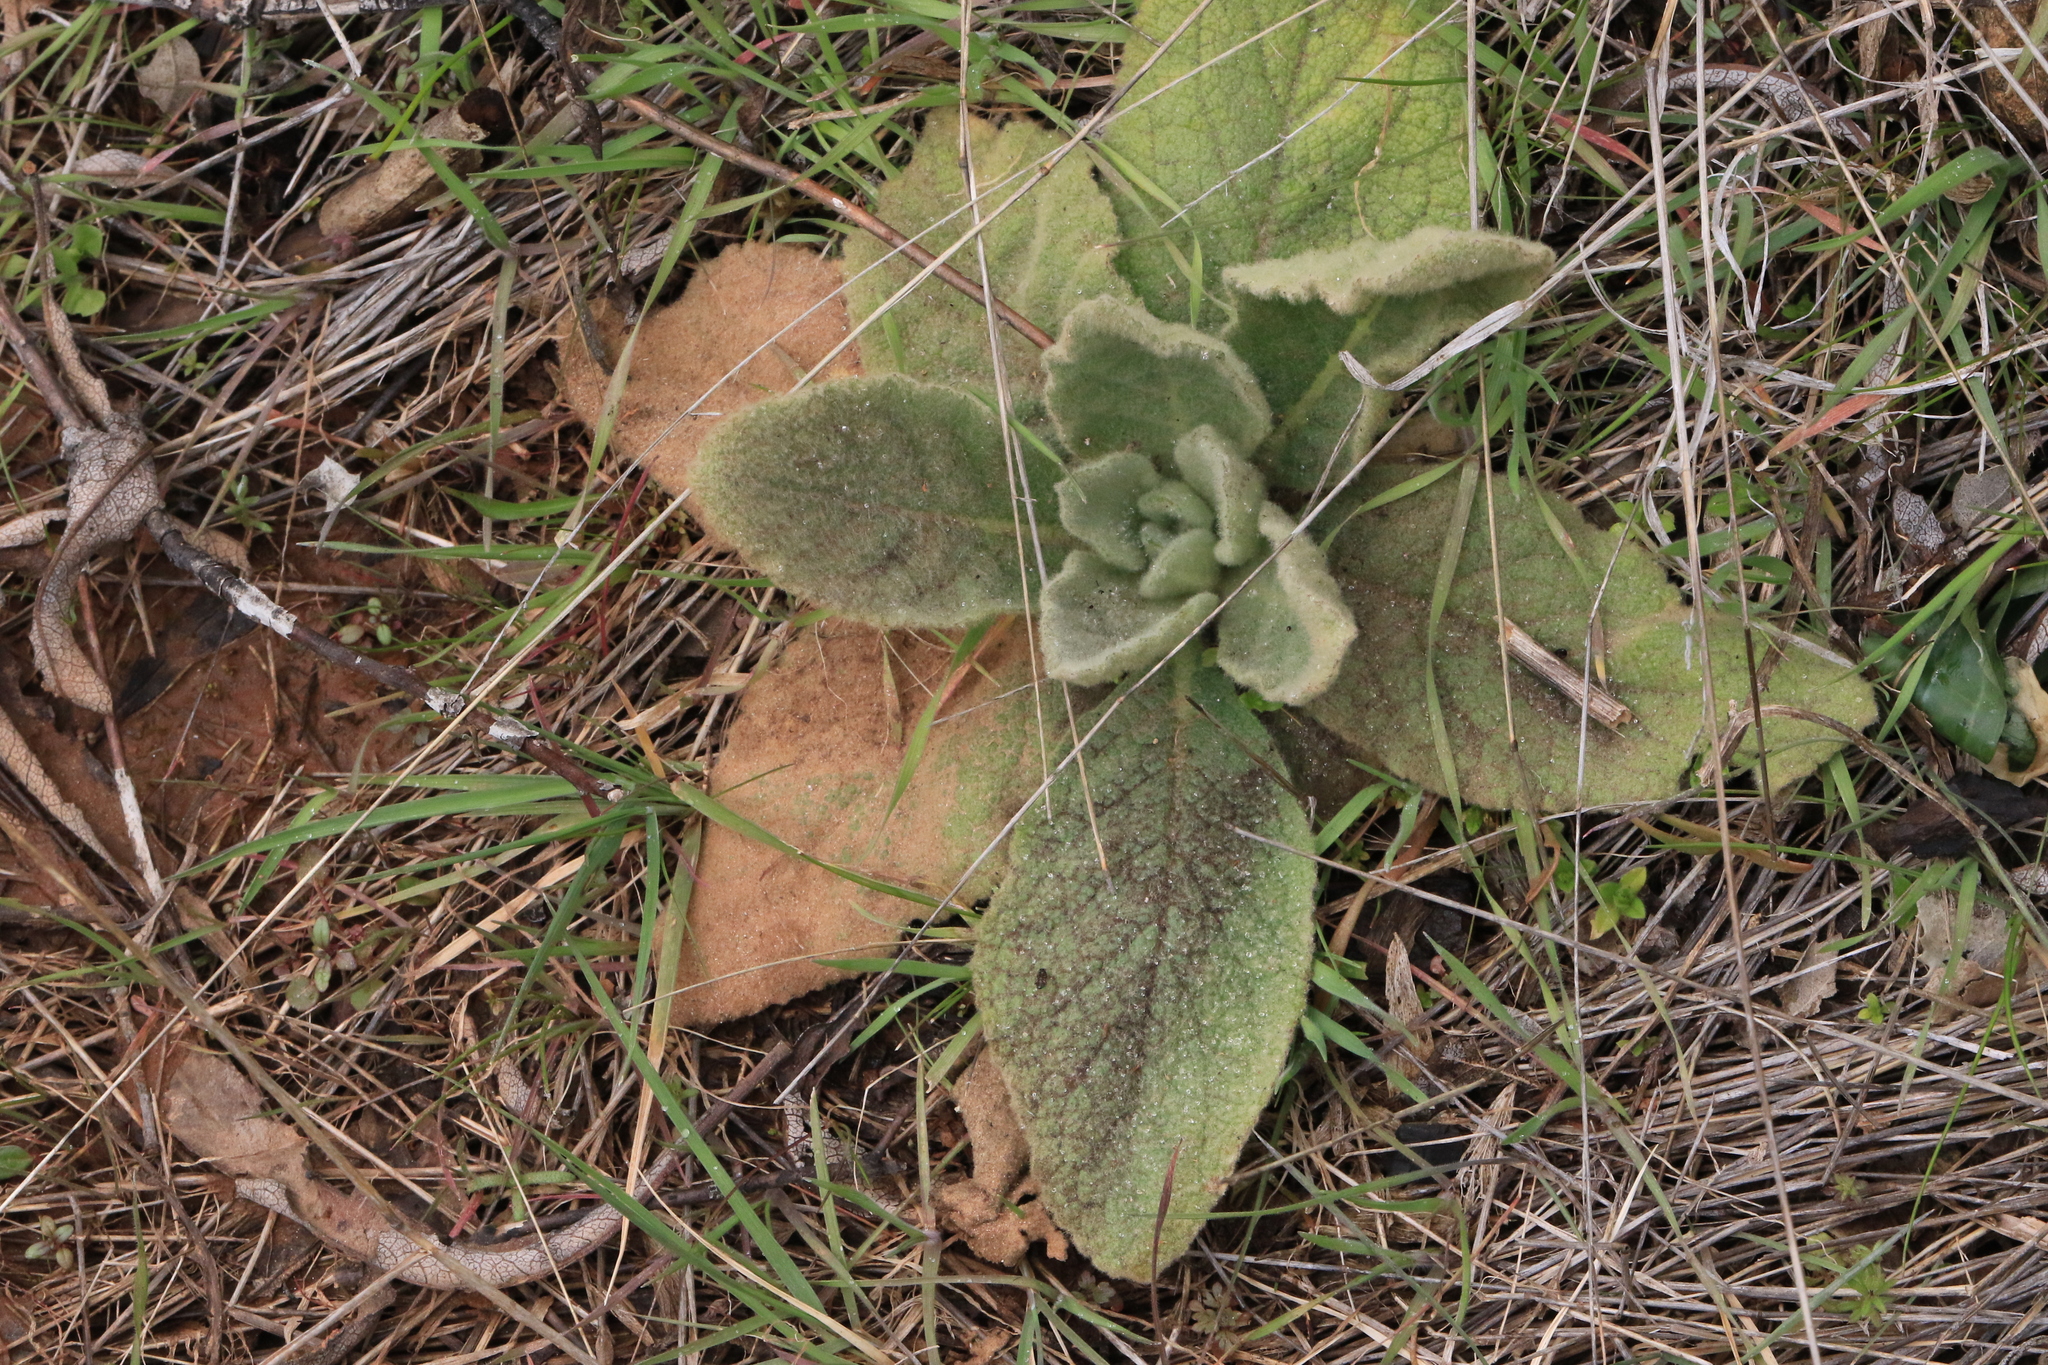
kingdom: Plantae
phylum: Tracheophyta
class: Magnoliopsida
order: Lamiales
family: Scrophulariaceae
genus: Verbascum
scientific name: Verbascum thapsus
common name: Common mullein
